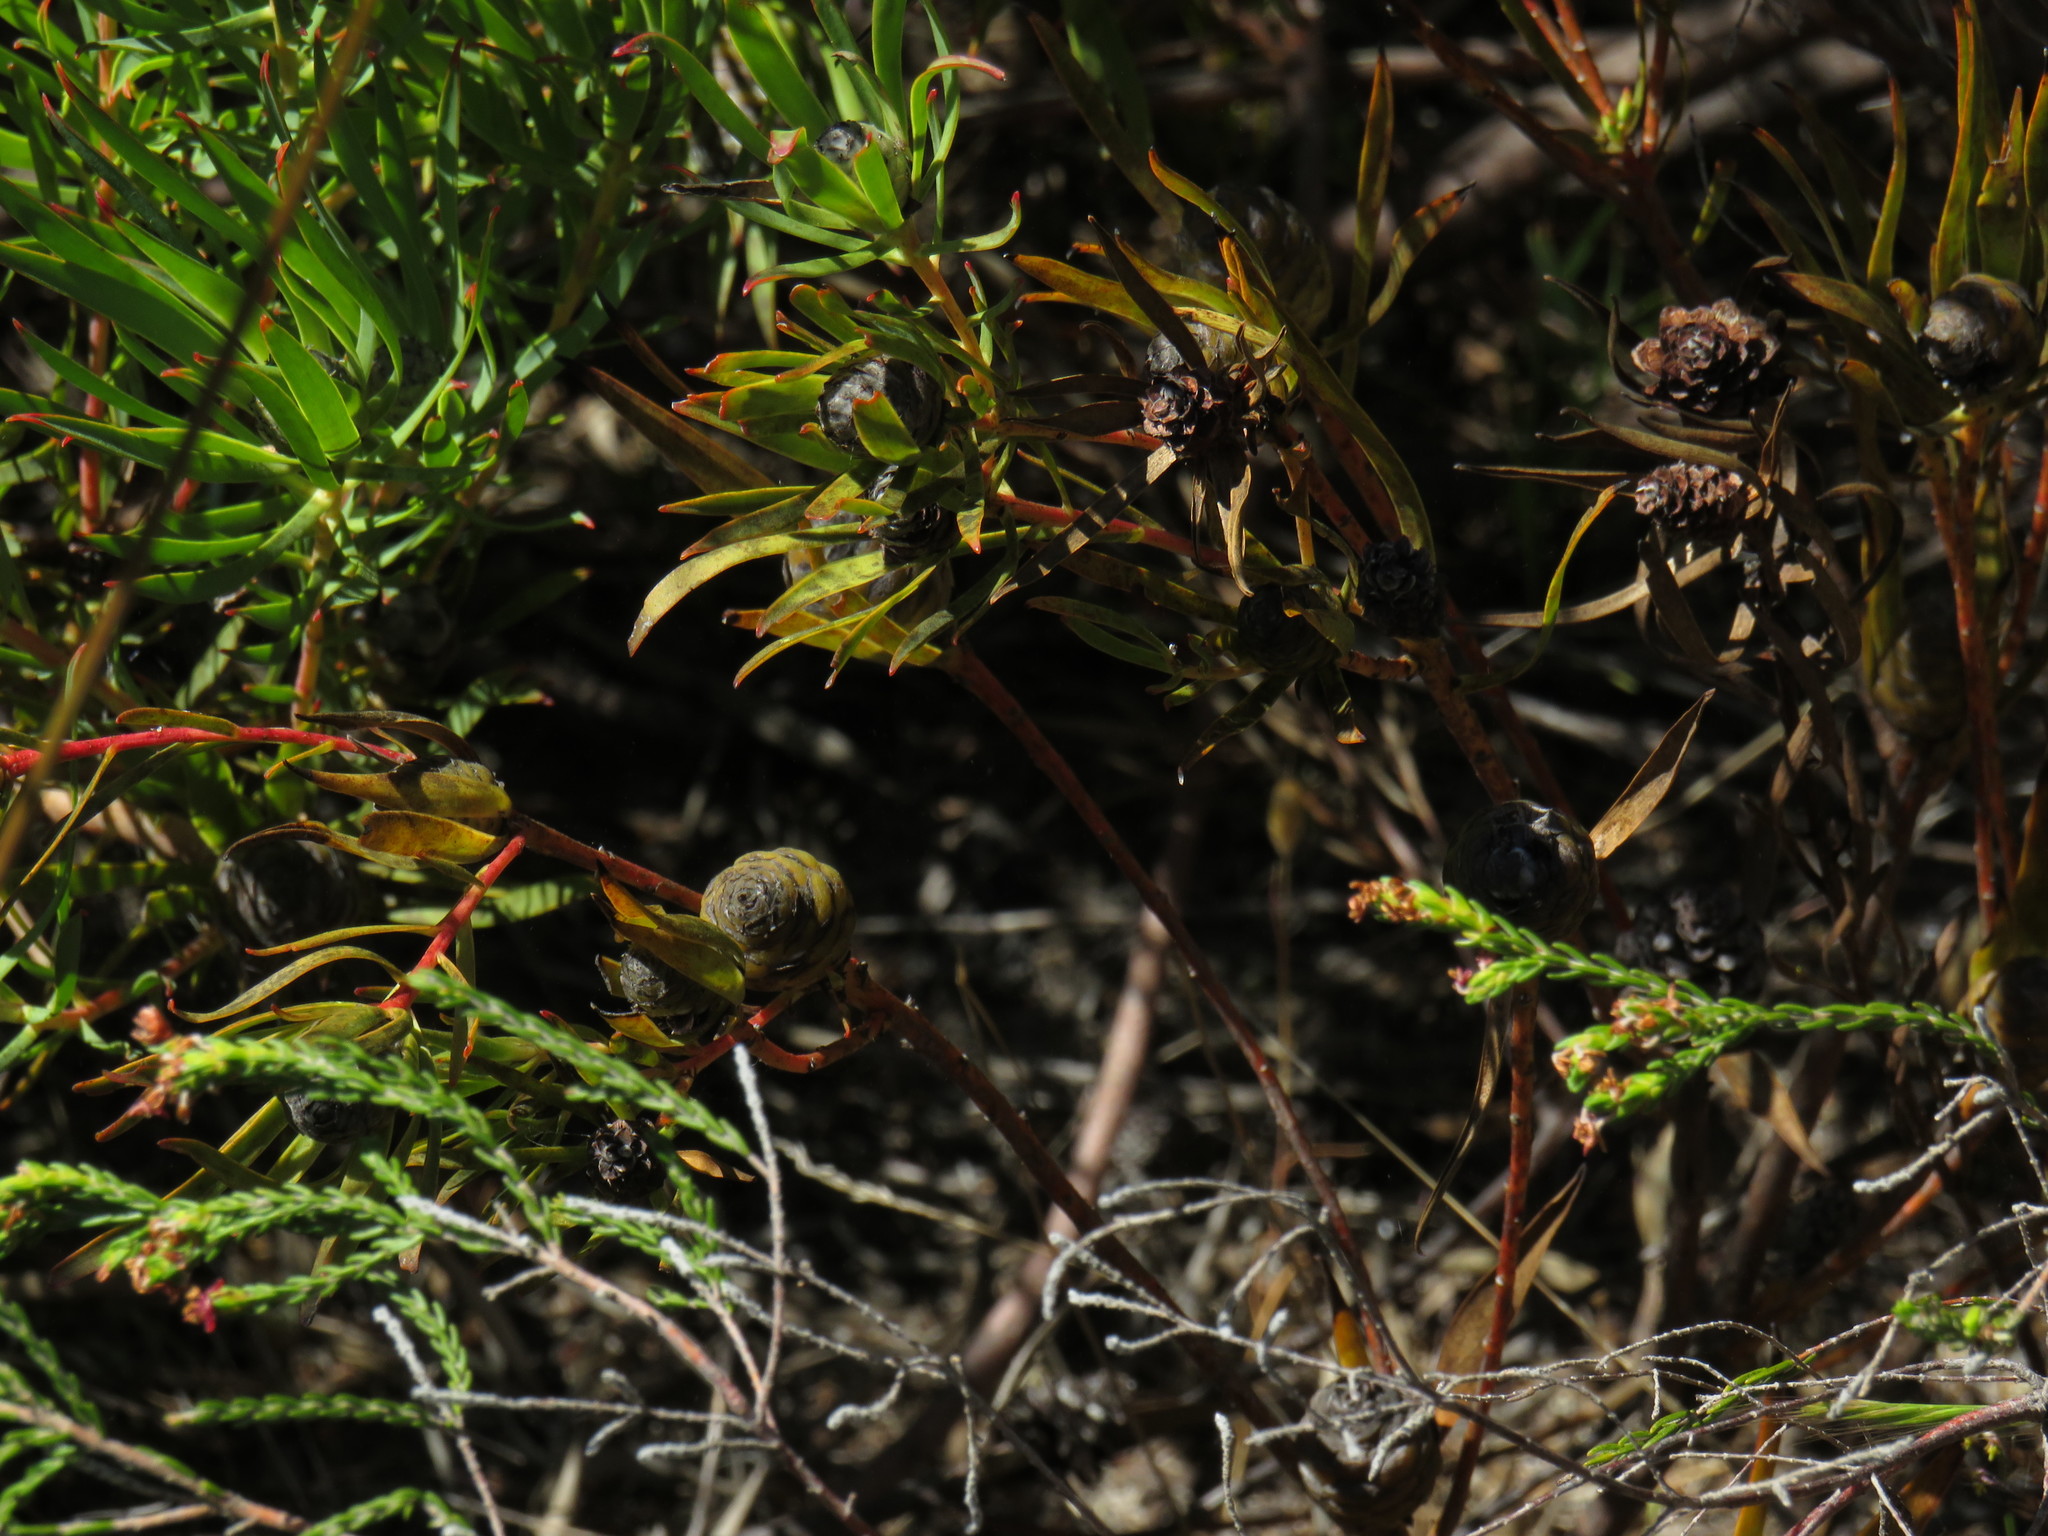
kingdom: Plantae
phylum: Tracheophyta
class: Magnoliopsida
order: Proteales
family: Proteaceae
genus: Leucadendron
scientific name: Leucadendron salignum
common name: Common sunshine conebush
